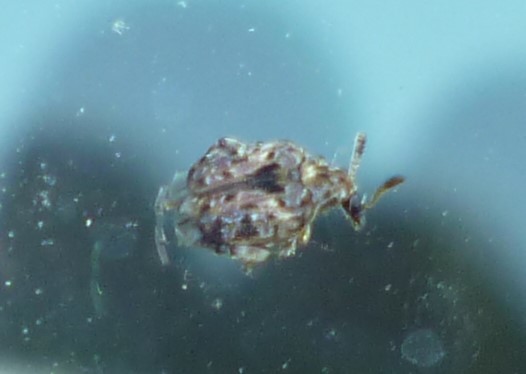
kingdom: Animalia
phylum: Arthropoda
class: Insecta
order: Coleoptera
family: Chrysomelidae
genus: Gibbobruchus
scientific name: Gibbobruchus mimus
